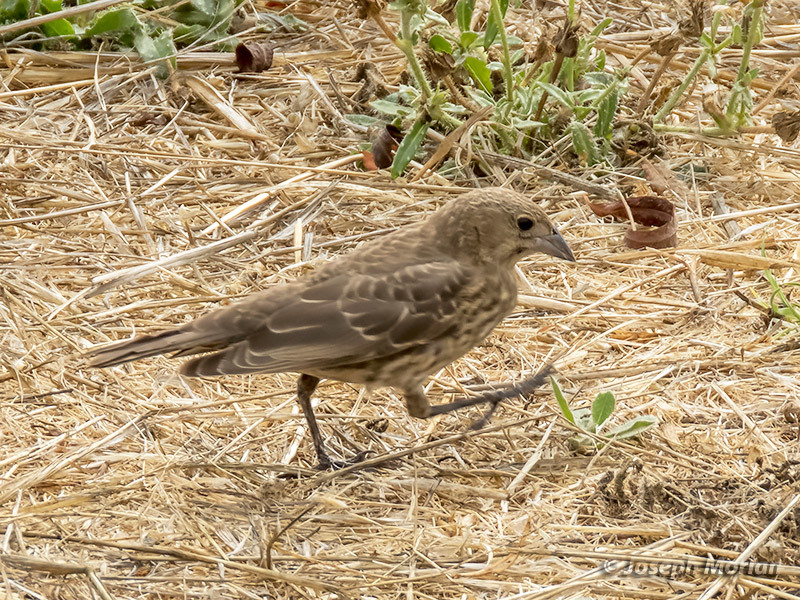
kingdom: Animalia
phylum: Chordata
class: Aves
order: Passeriformes
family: Icteridae
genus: Molothrus
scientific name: Molothrus ater
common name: Brown-headed cowbird
